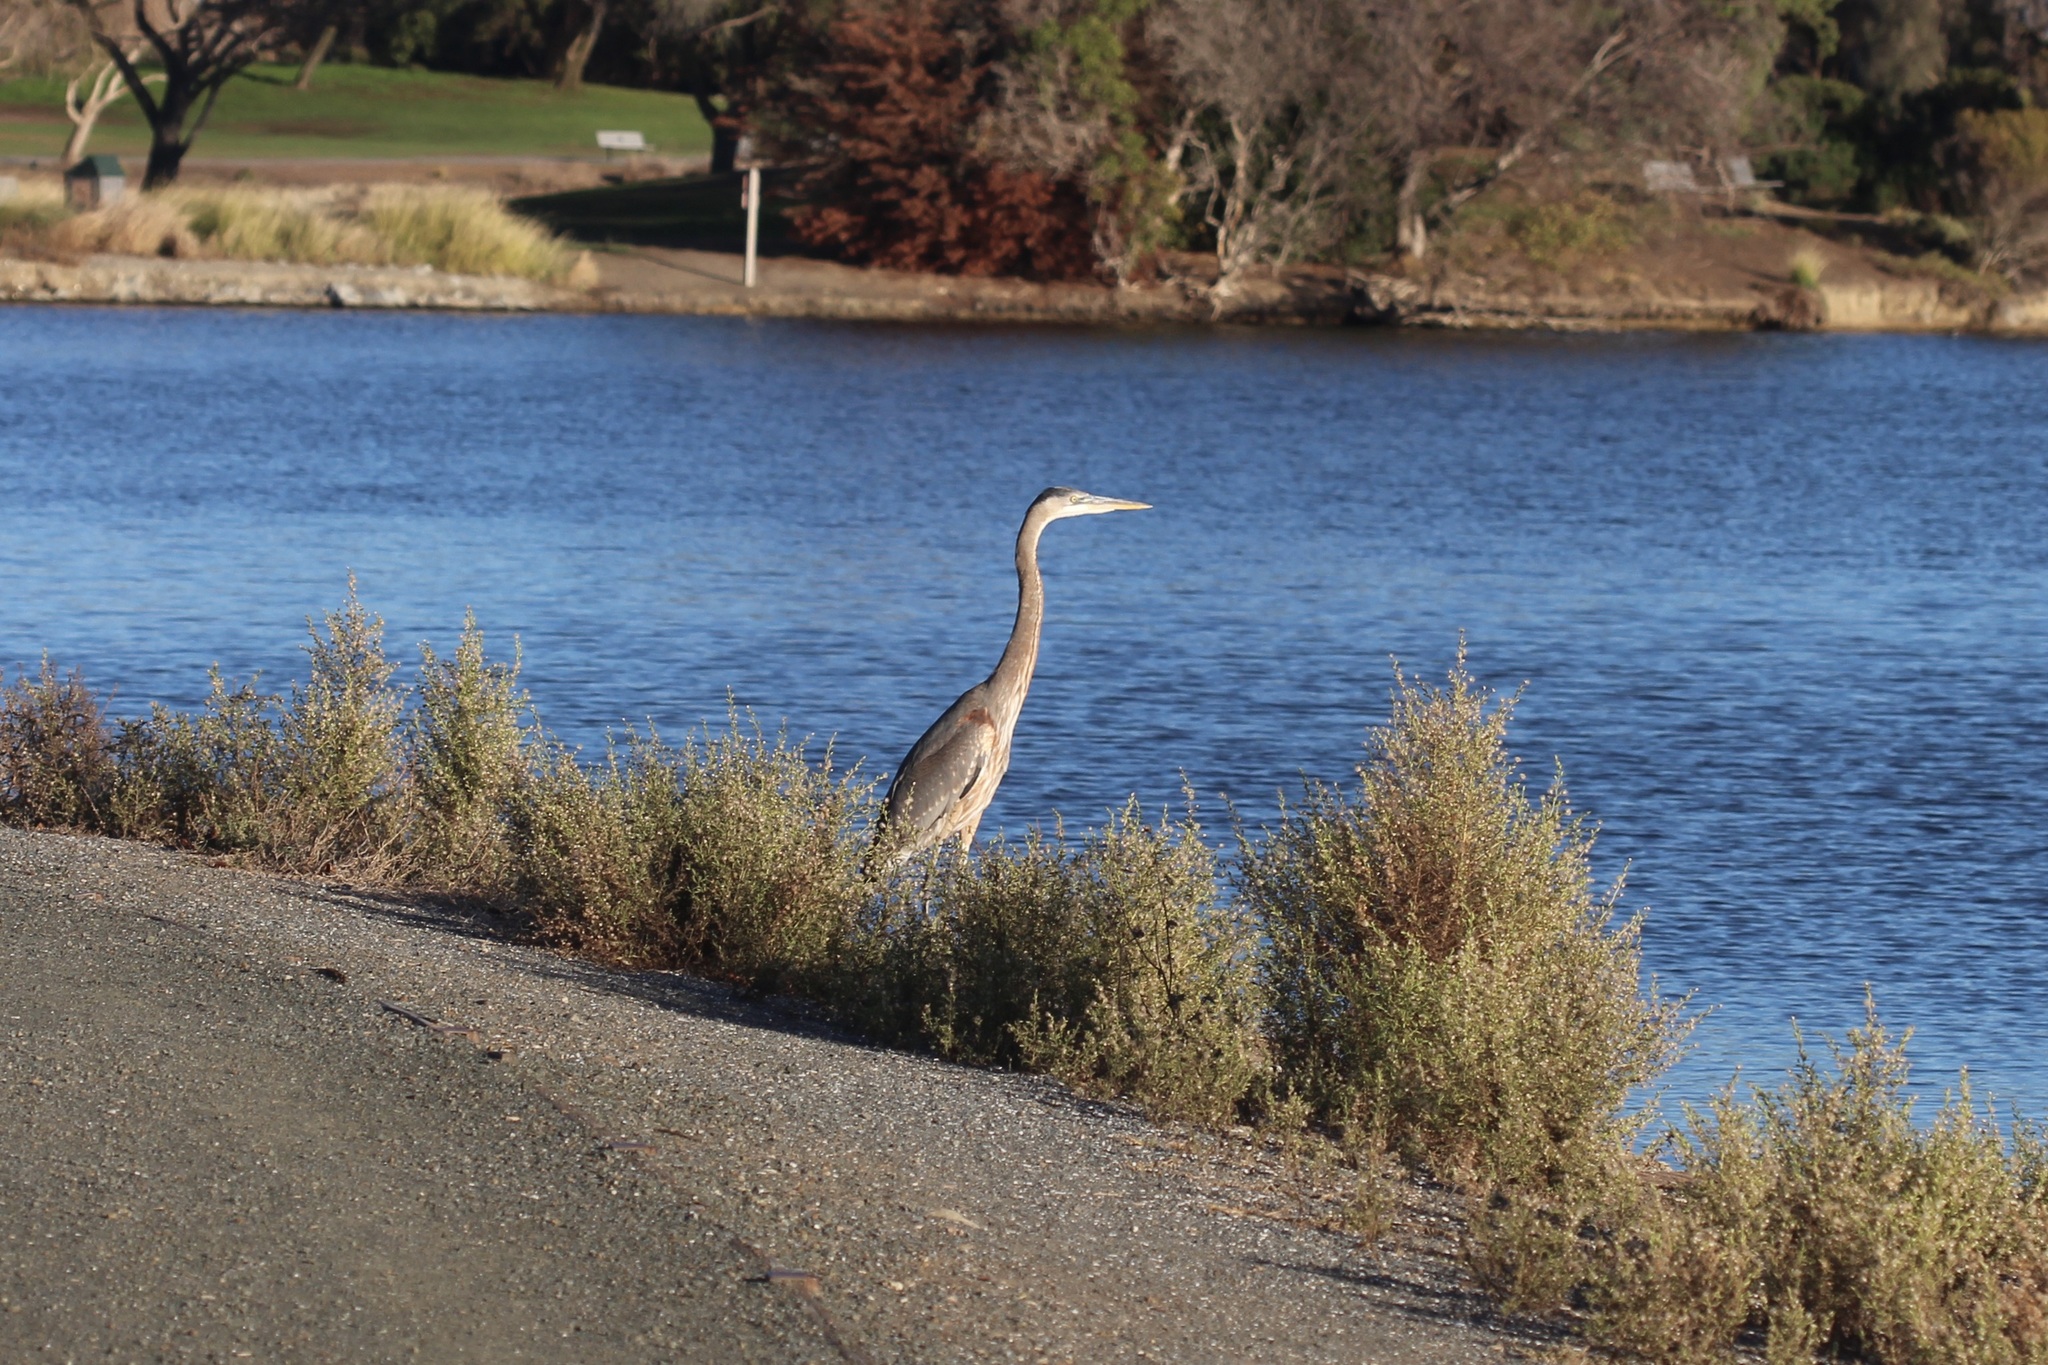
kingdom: Animalia
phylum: Chordata
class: Aves
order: Pelecaniformes
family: Ardeidae
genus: Ardea
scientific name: Ardea herodias
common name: Great blue heron
